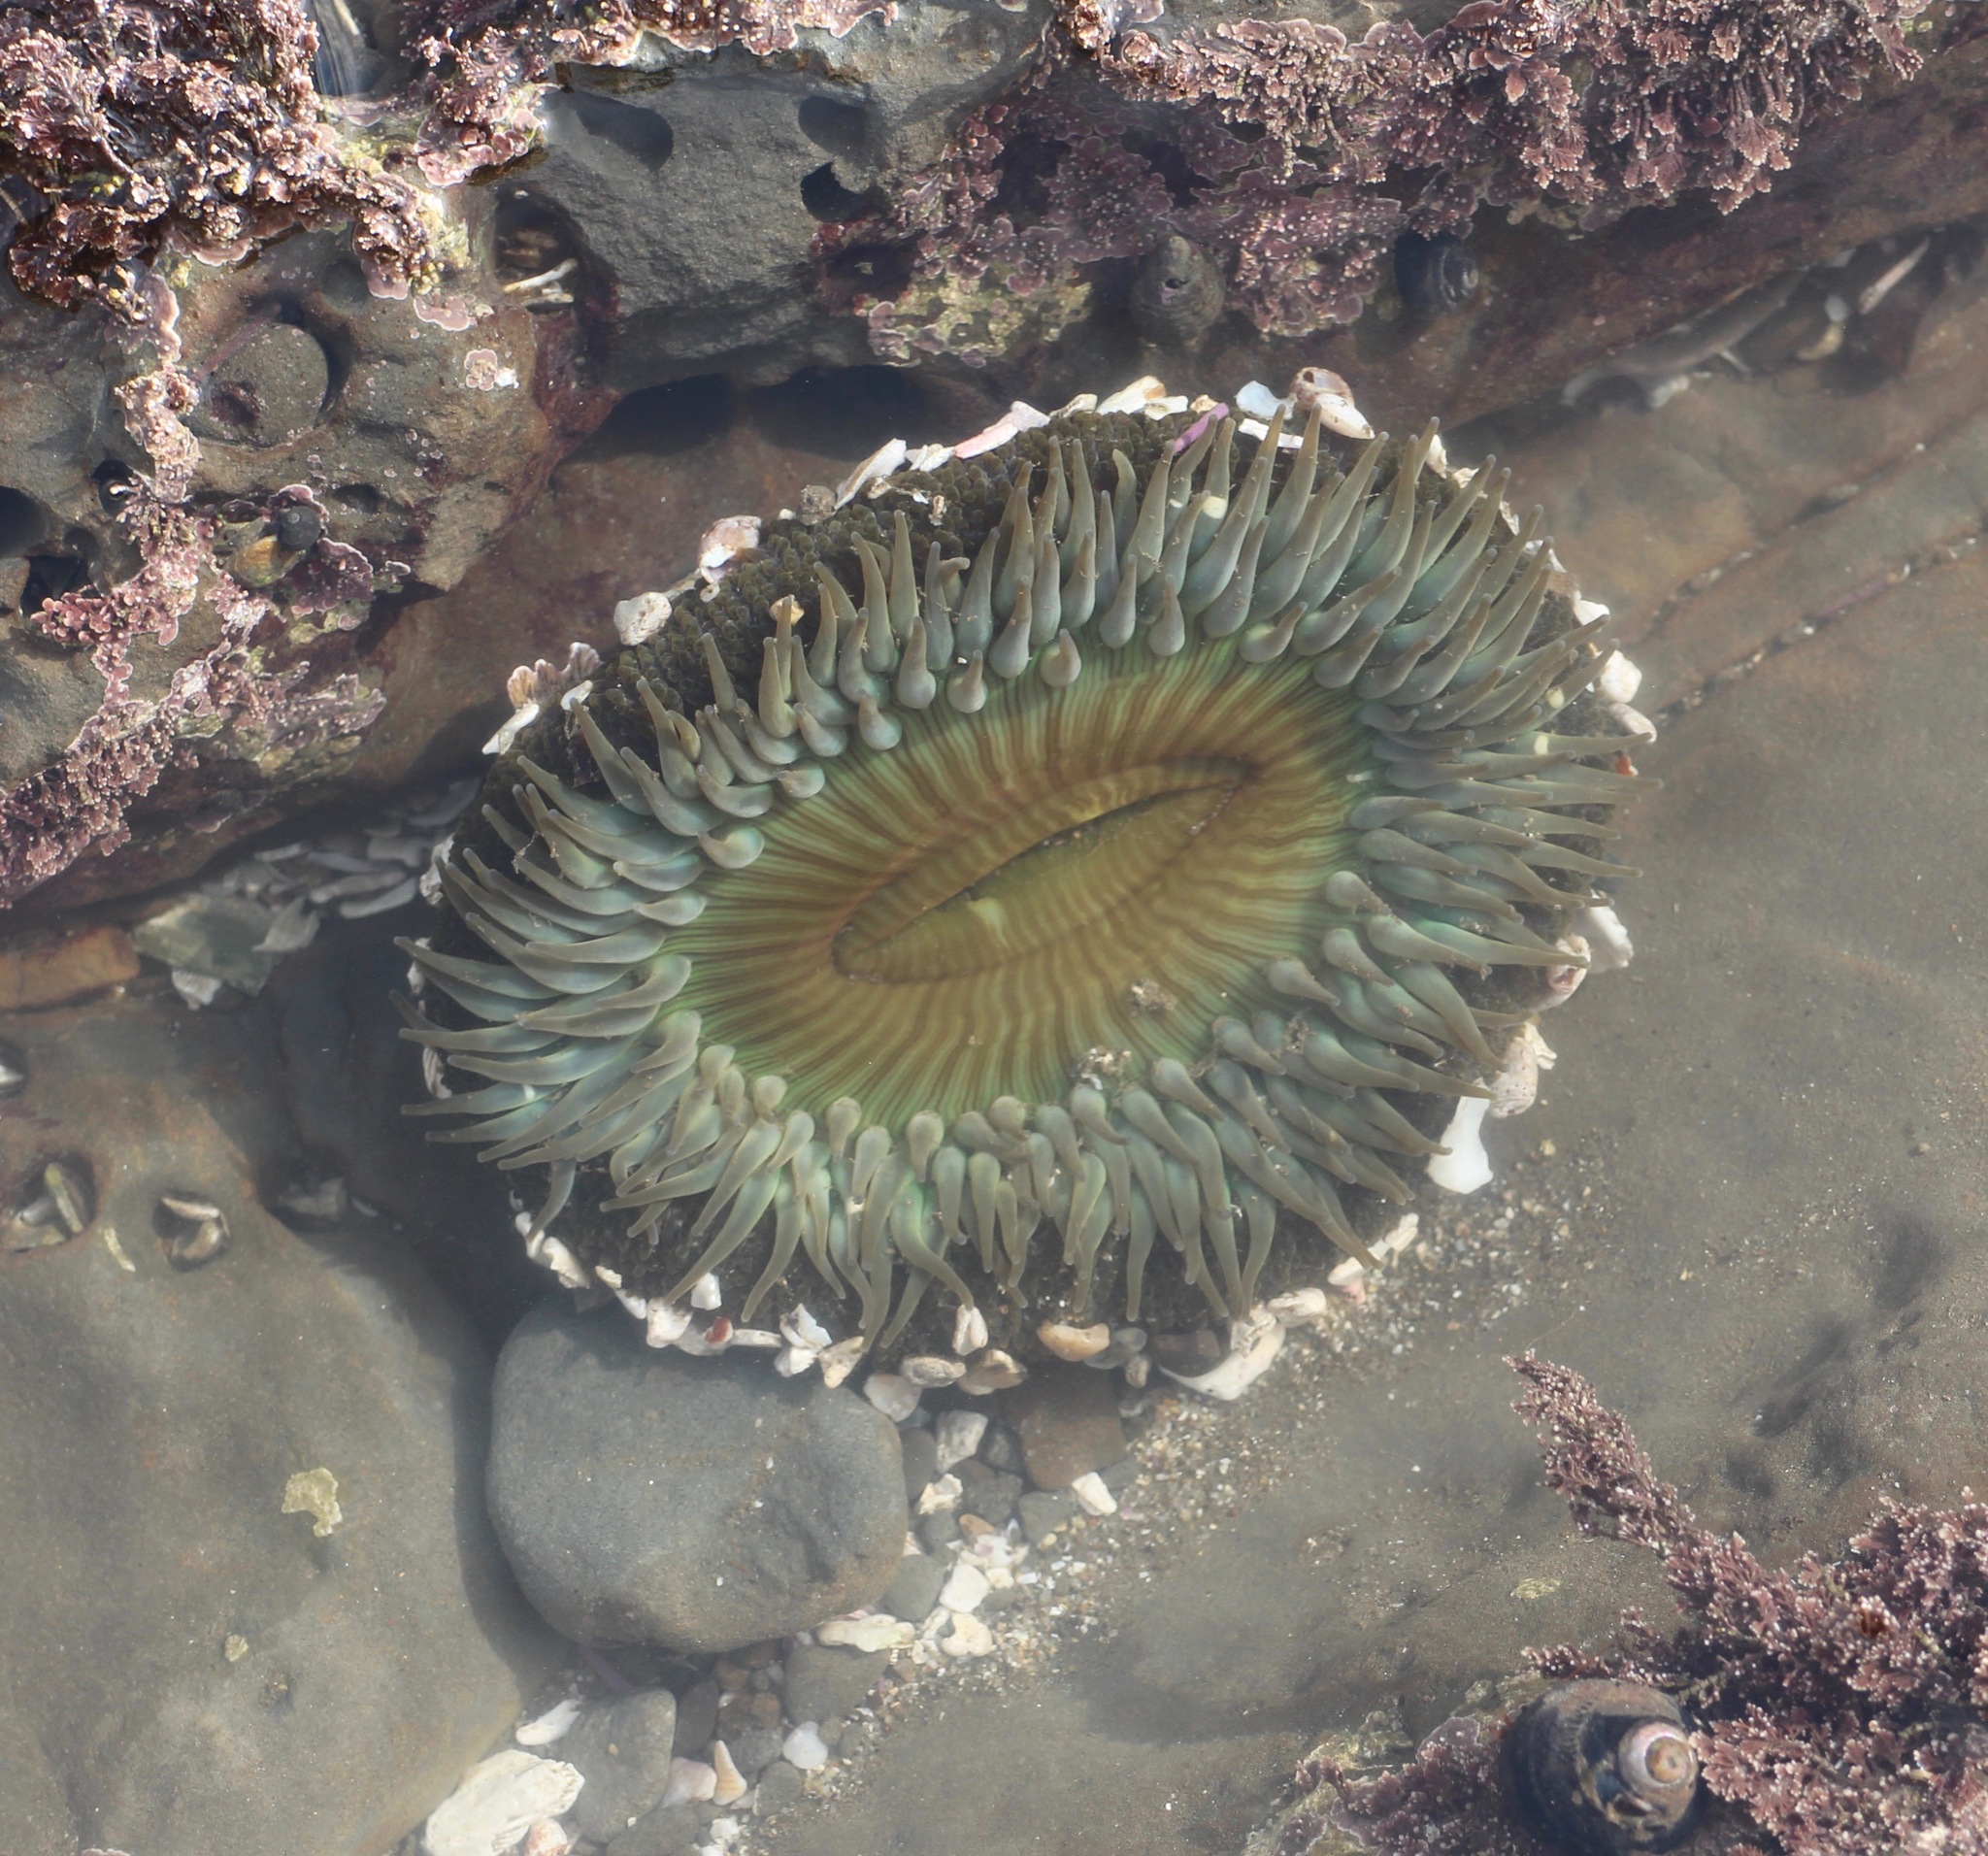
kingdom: Animalia
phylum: Cnidaria
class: Anthozoa
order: Actiniaria
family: Actiniidae
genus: Anthopleura
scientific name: Anthopleura sola
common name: Sun anemone
